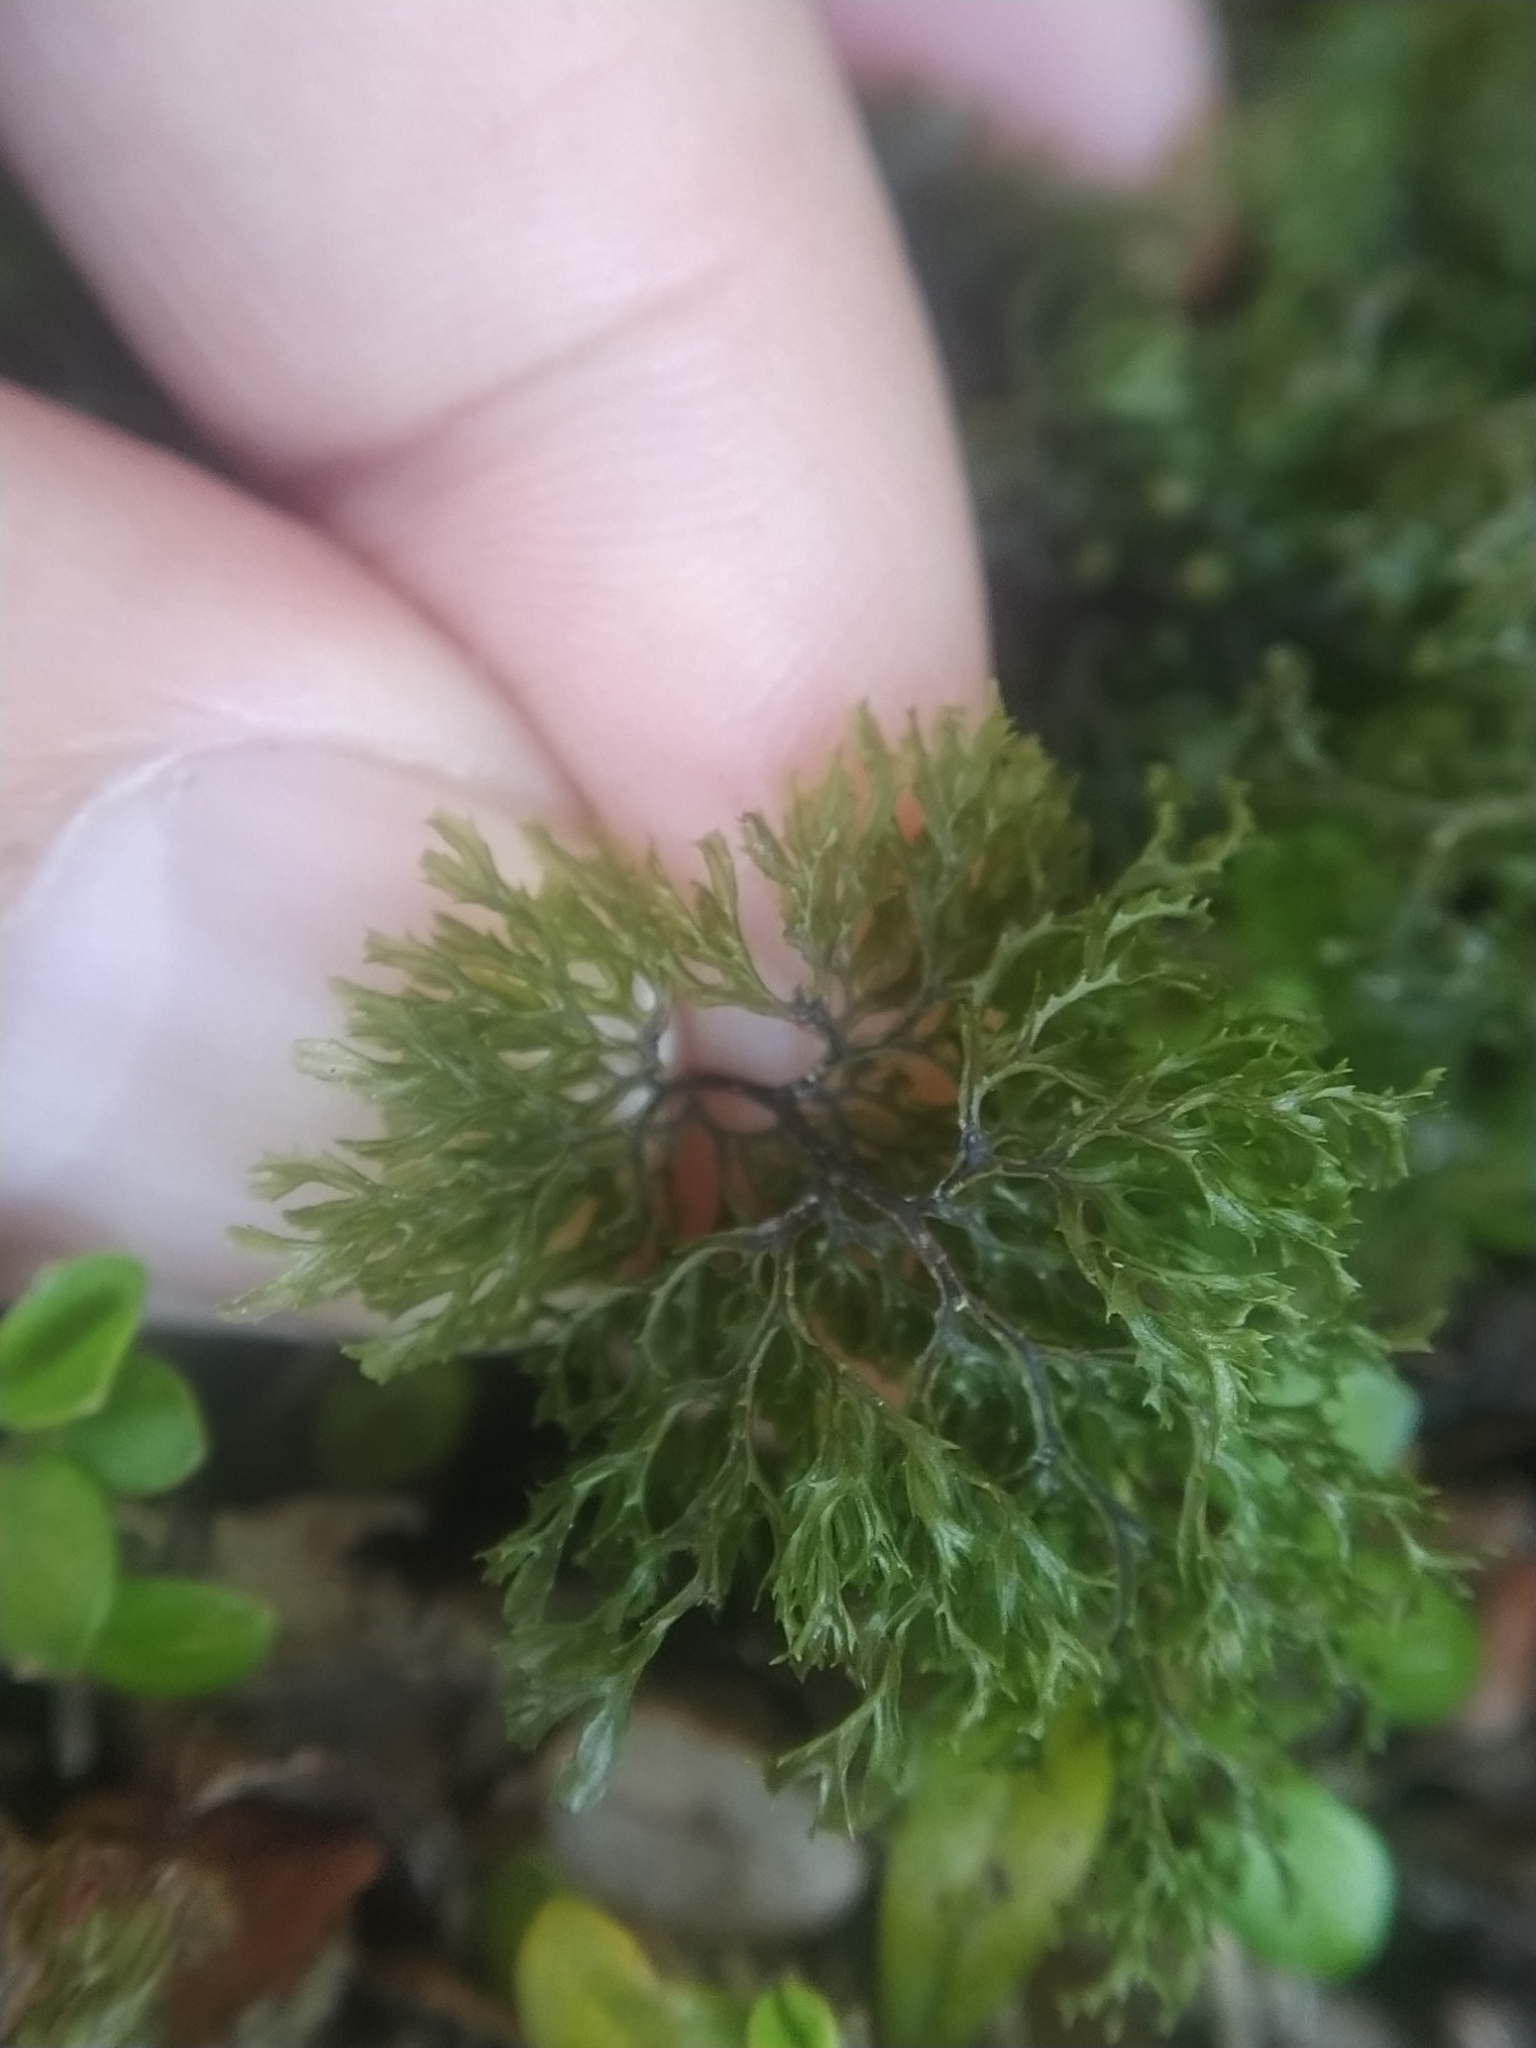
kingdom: Plantae
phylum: Tracheophyta
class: Polypodiopsida
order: Hymenophyllales
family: Hymenophyllaceae
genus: Hymenophyllum
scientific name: Hymenophyllum multifidum
